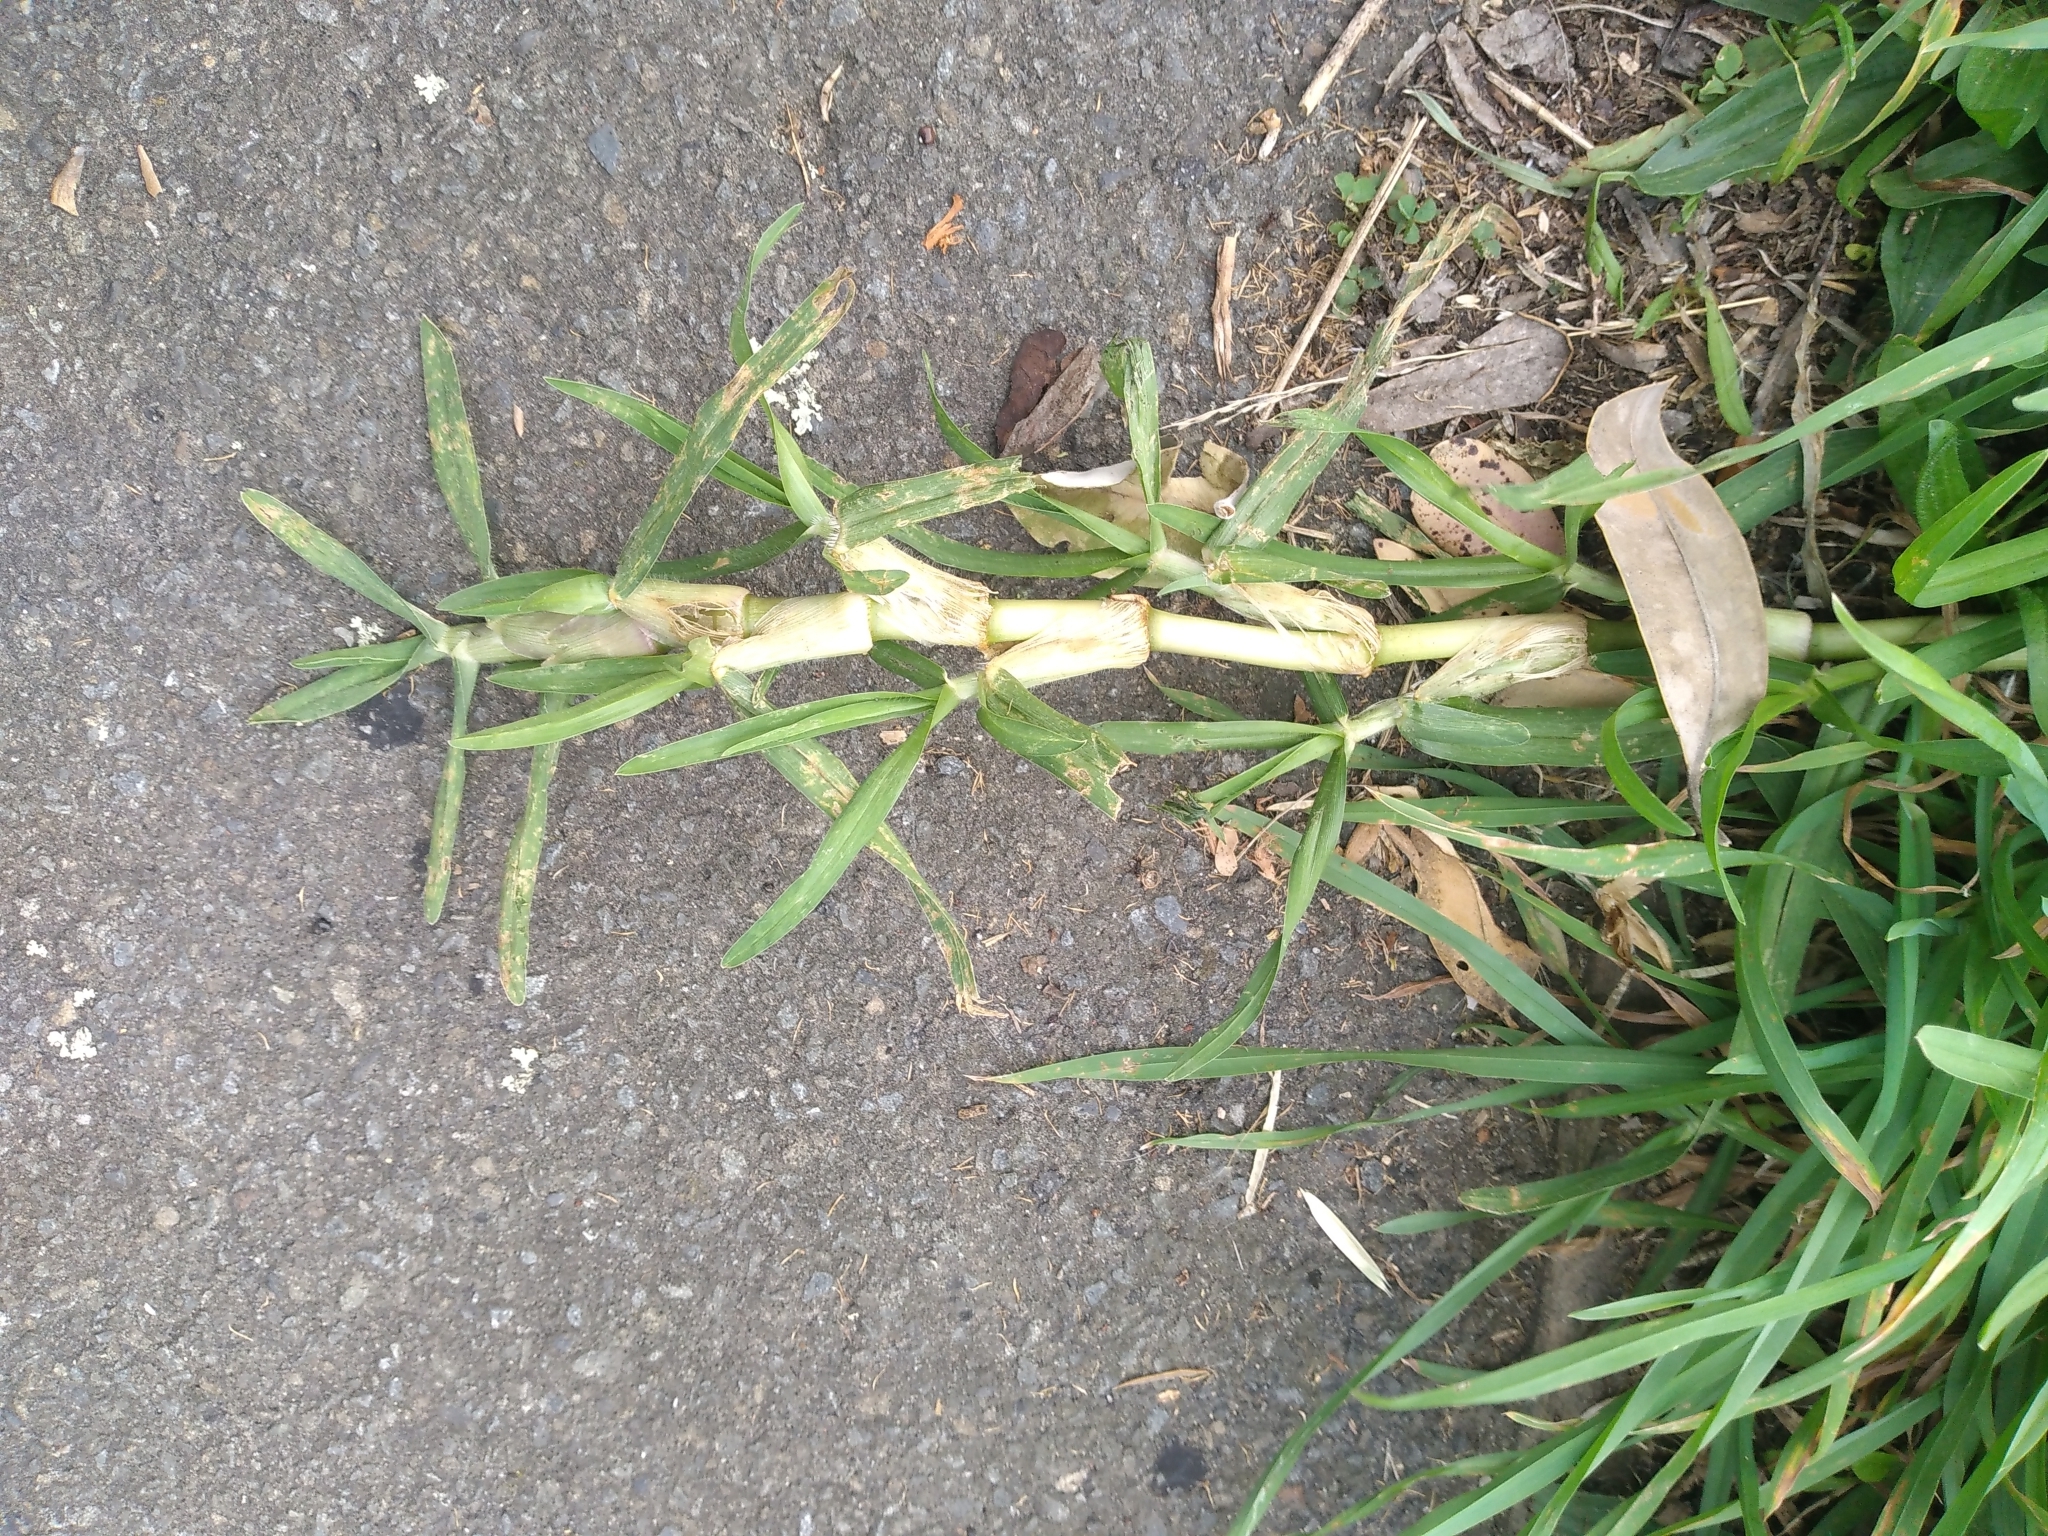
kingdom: Plantae
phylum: Tracheophyta
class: Liliopsida
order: Poales
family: Poaceae
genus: Stenotaphrum
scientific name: Stenotaphrum secundatum
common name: St. augustine grass
